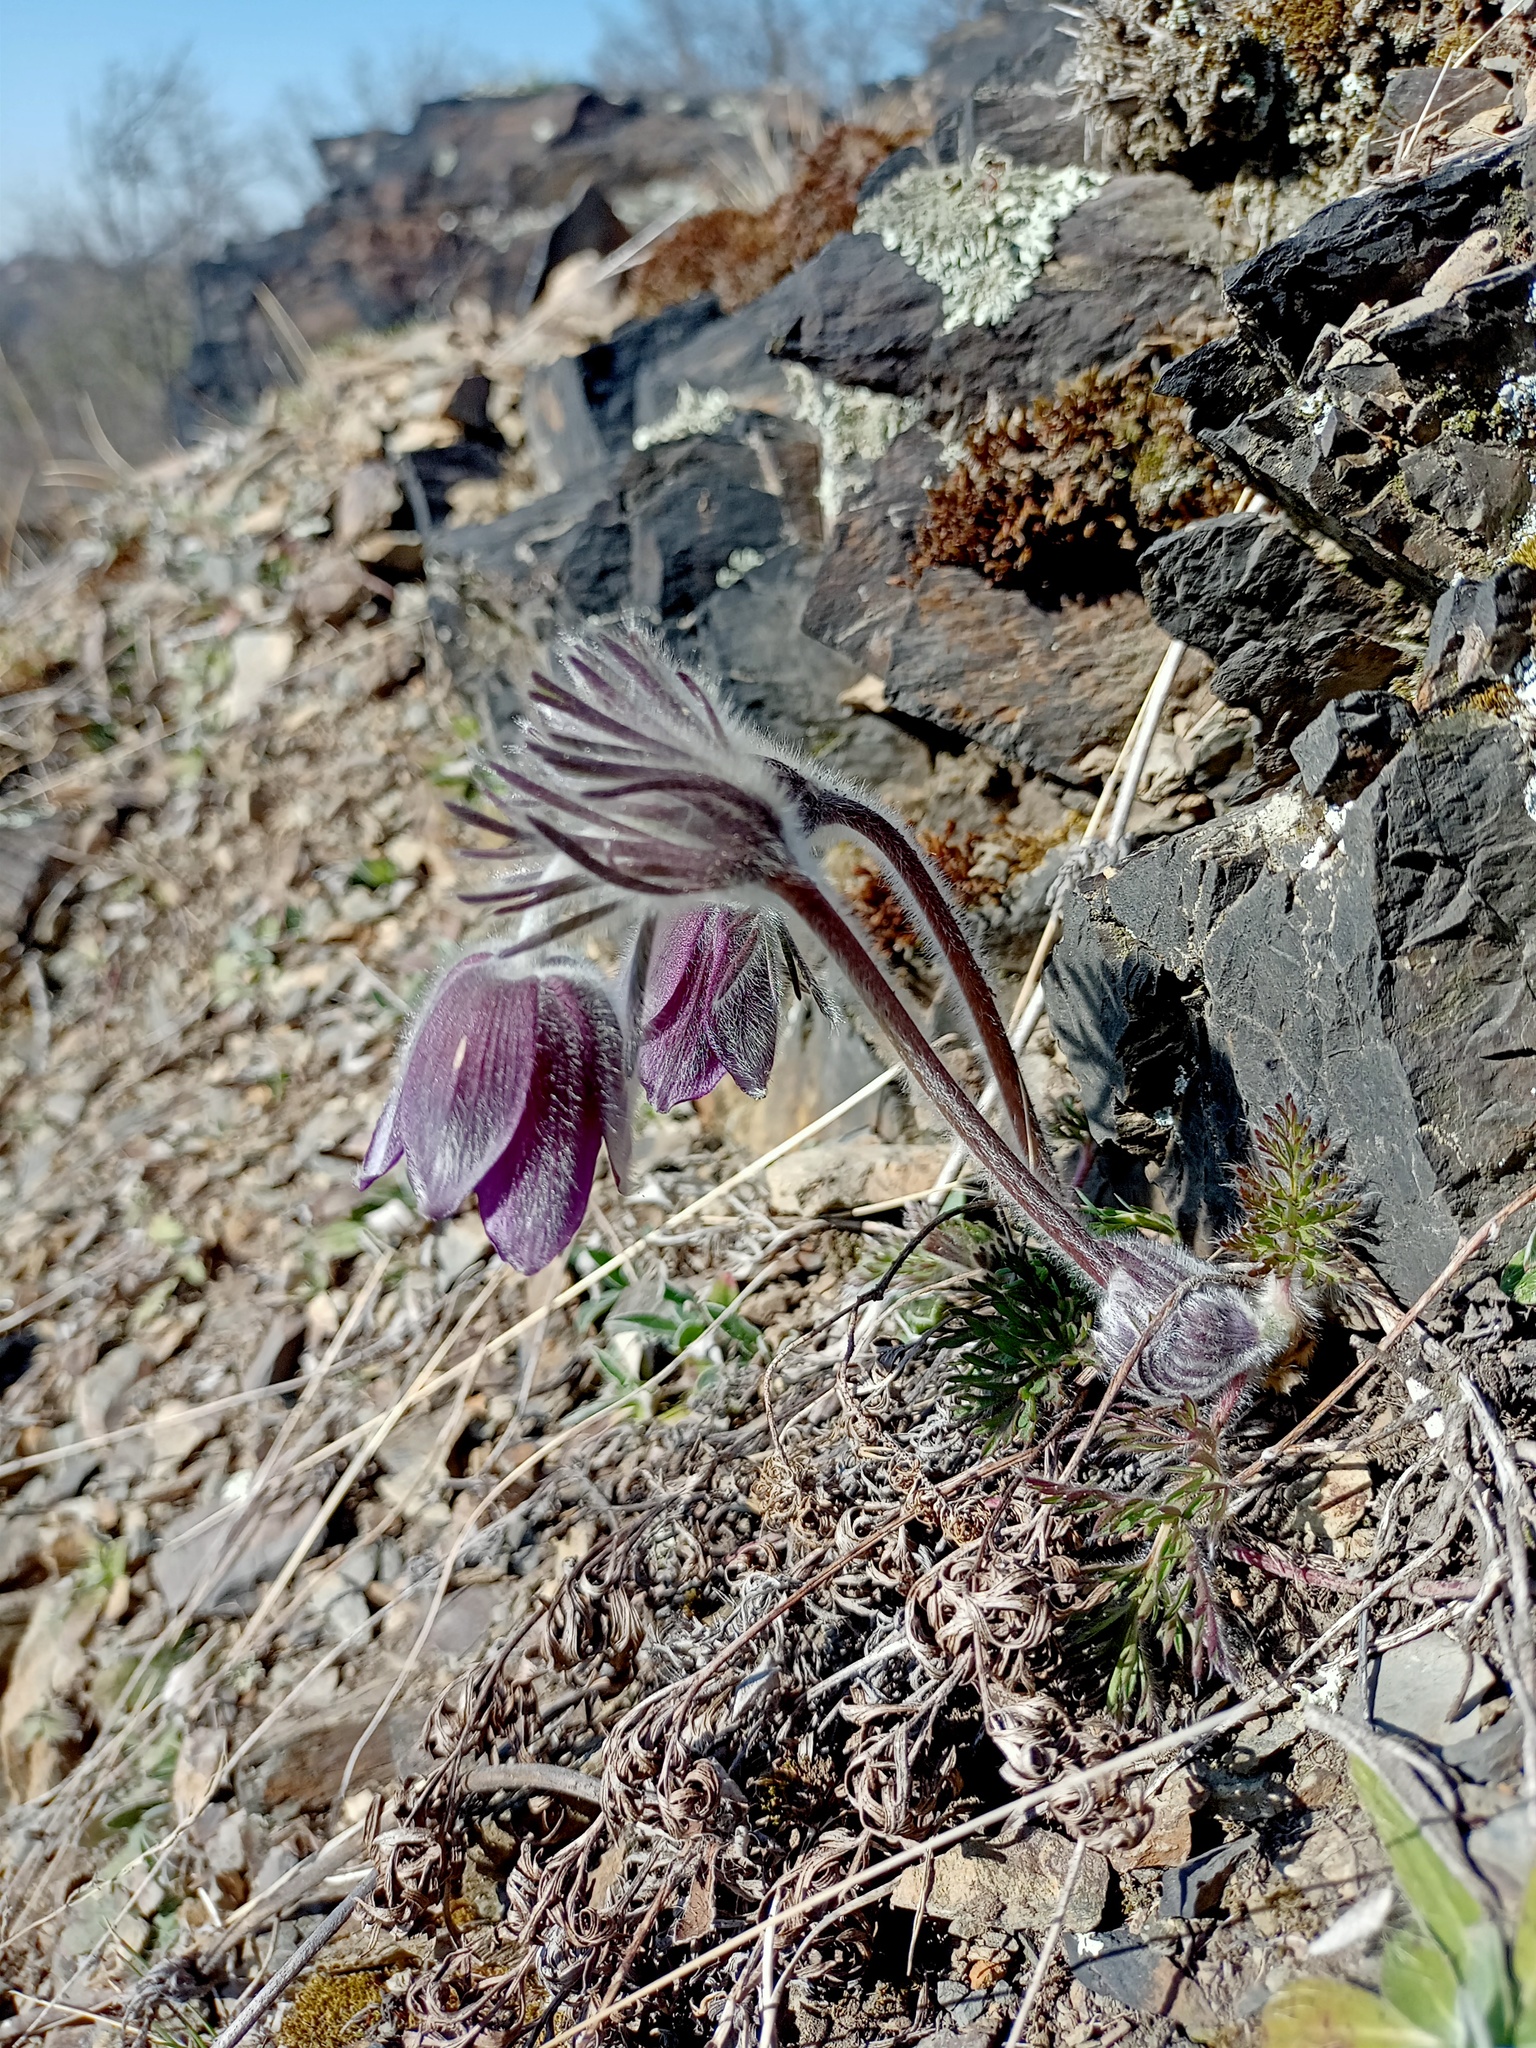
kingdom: Plantae
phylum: Tracheophyta
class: Magnoliopsida
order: Ranunculales
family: Ranunculaceae
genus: Pulsatilla
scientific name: Pulsatilla pratensis
